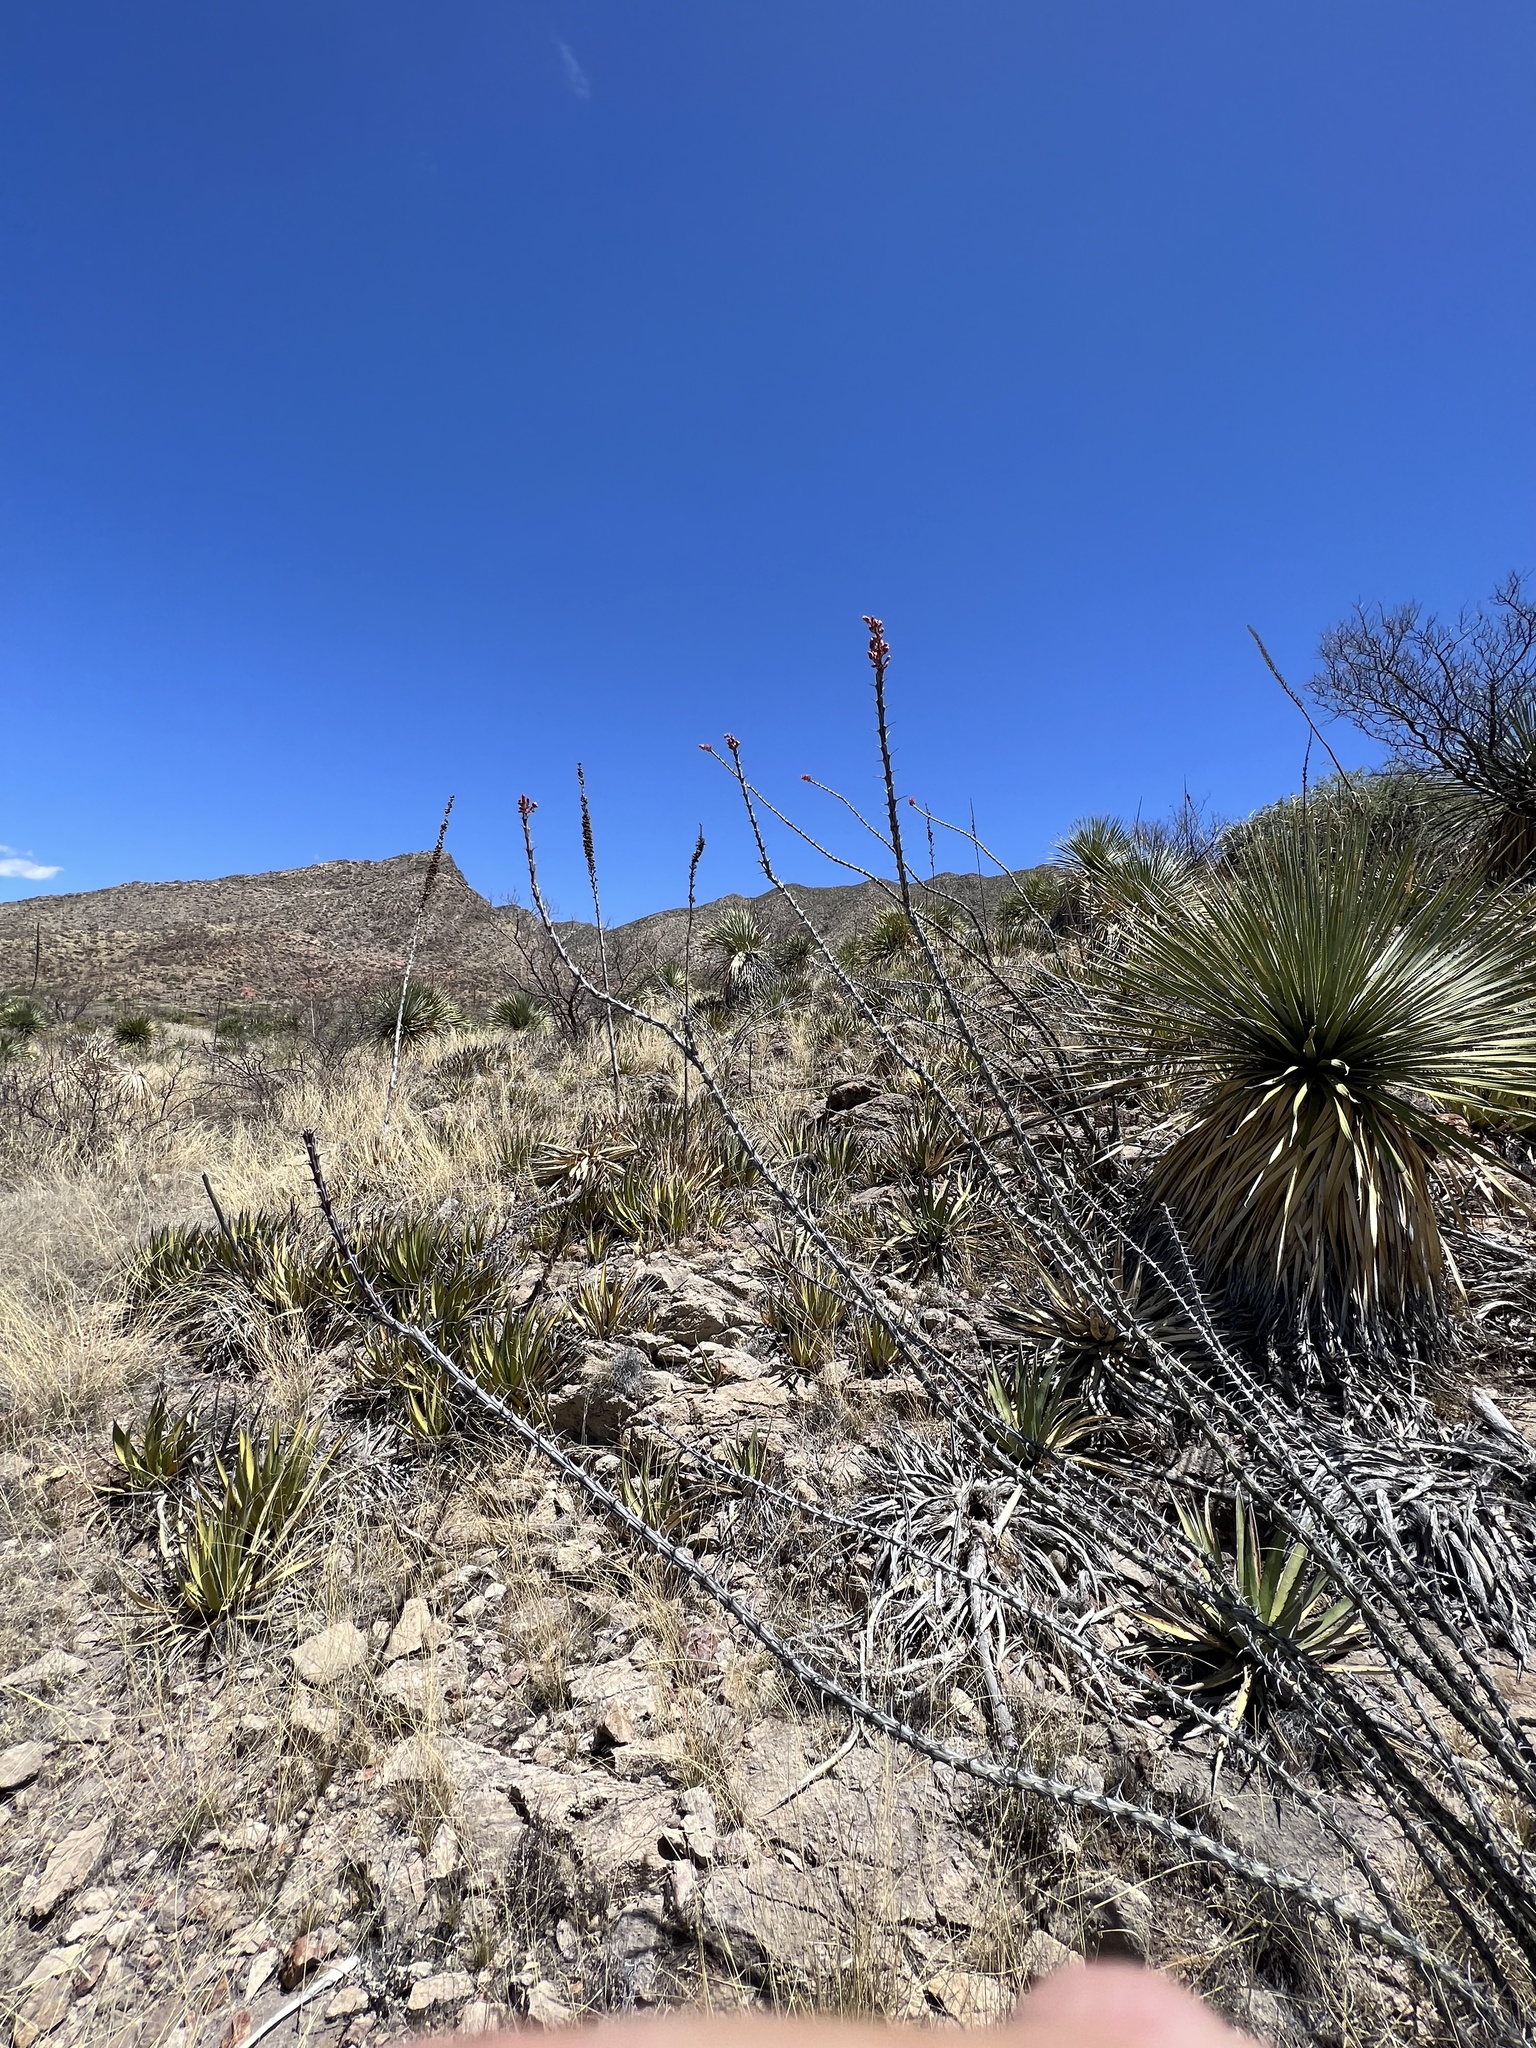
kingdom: Plantae
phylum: Tracheophyta
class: Magnoliopsida
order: Ericales
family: Fouquieriaceae
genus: Fouquieria
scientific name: Fouquieria splendens
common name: Vine-cactus
